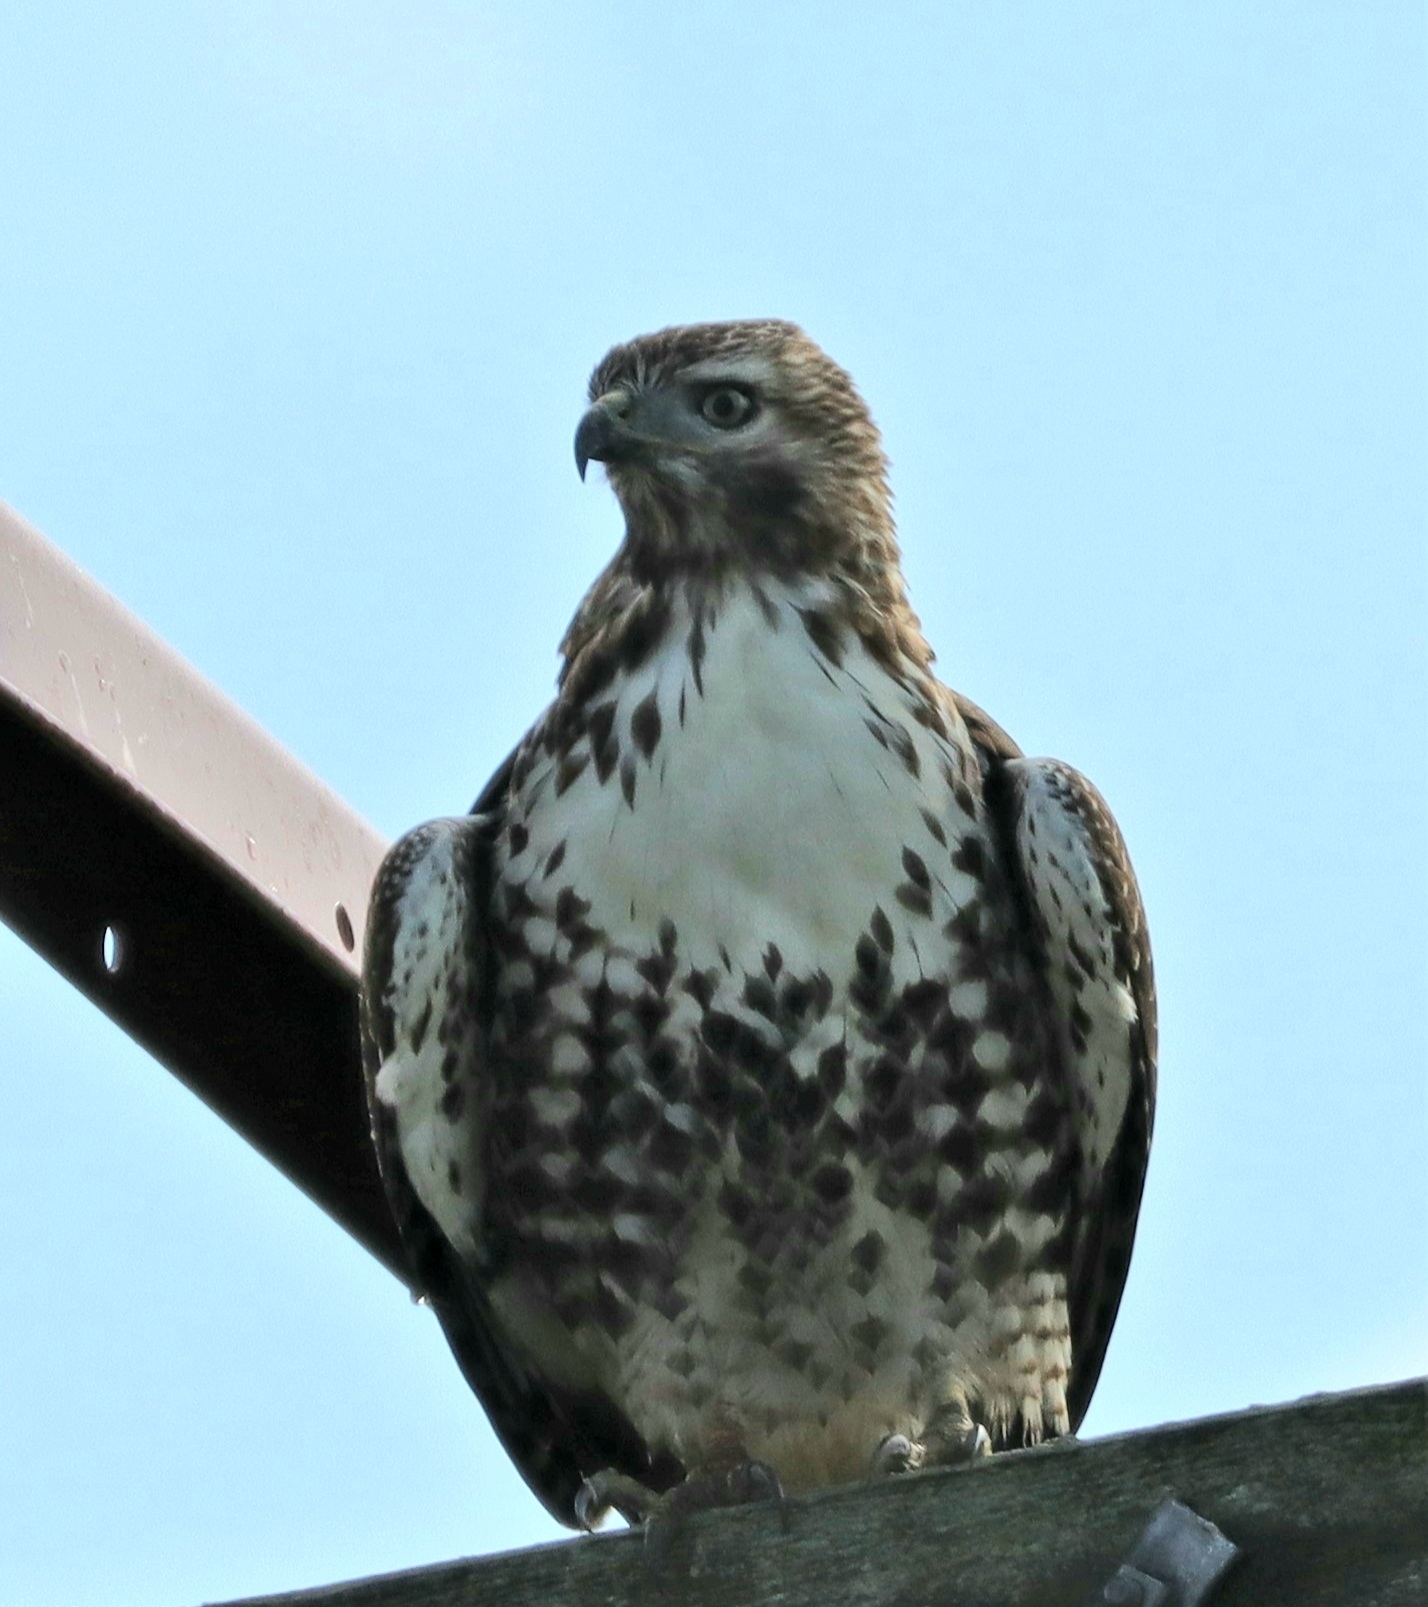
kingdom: Animalia
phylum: Chordata
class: Aves
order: Accipitriformes
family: Accipitridae
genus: Buteo
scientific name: Buteo jamaicensis
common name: Red-tailed hawk
